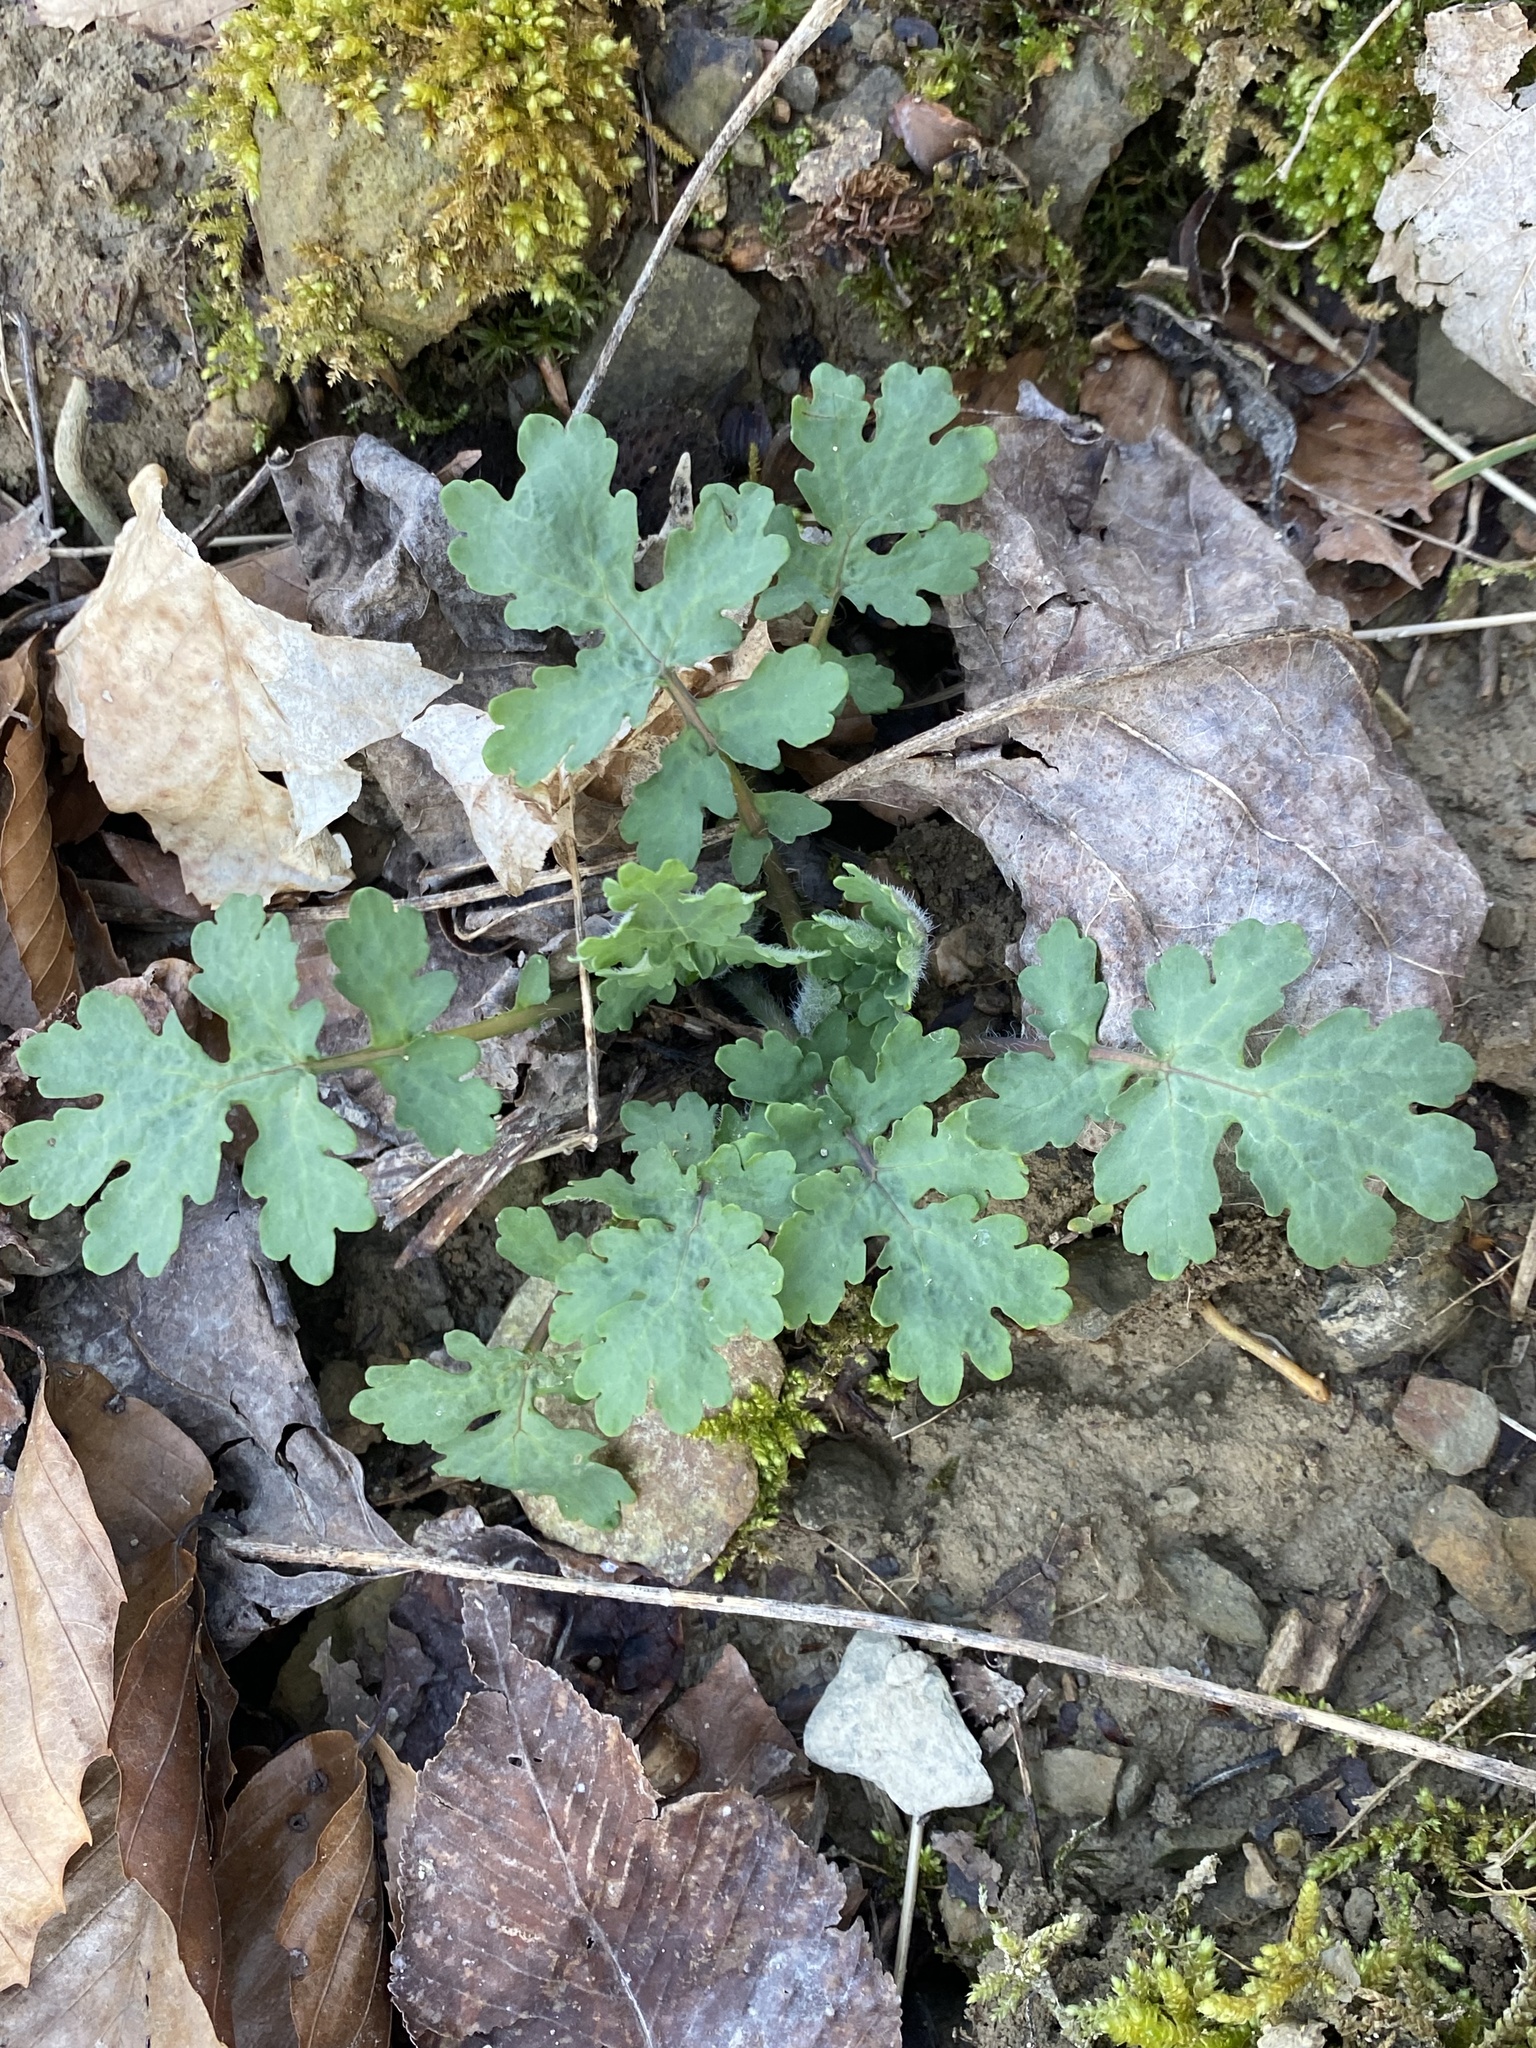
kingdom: Plantae
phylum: Tracheophyta
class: Magnoliopsida
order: Ranunculales
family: Papaveraceae
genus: Stylophorum
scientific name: Stylophorum diphyllum
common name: Celandine poppy
